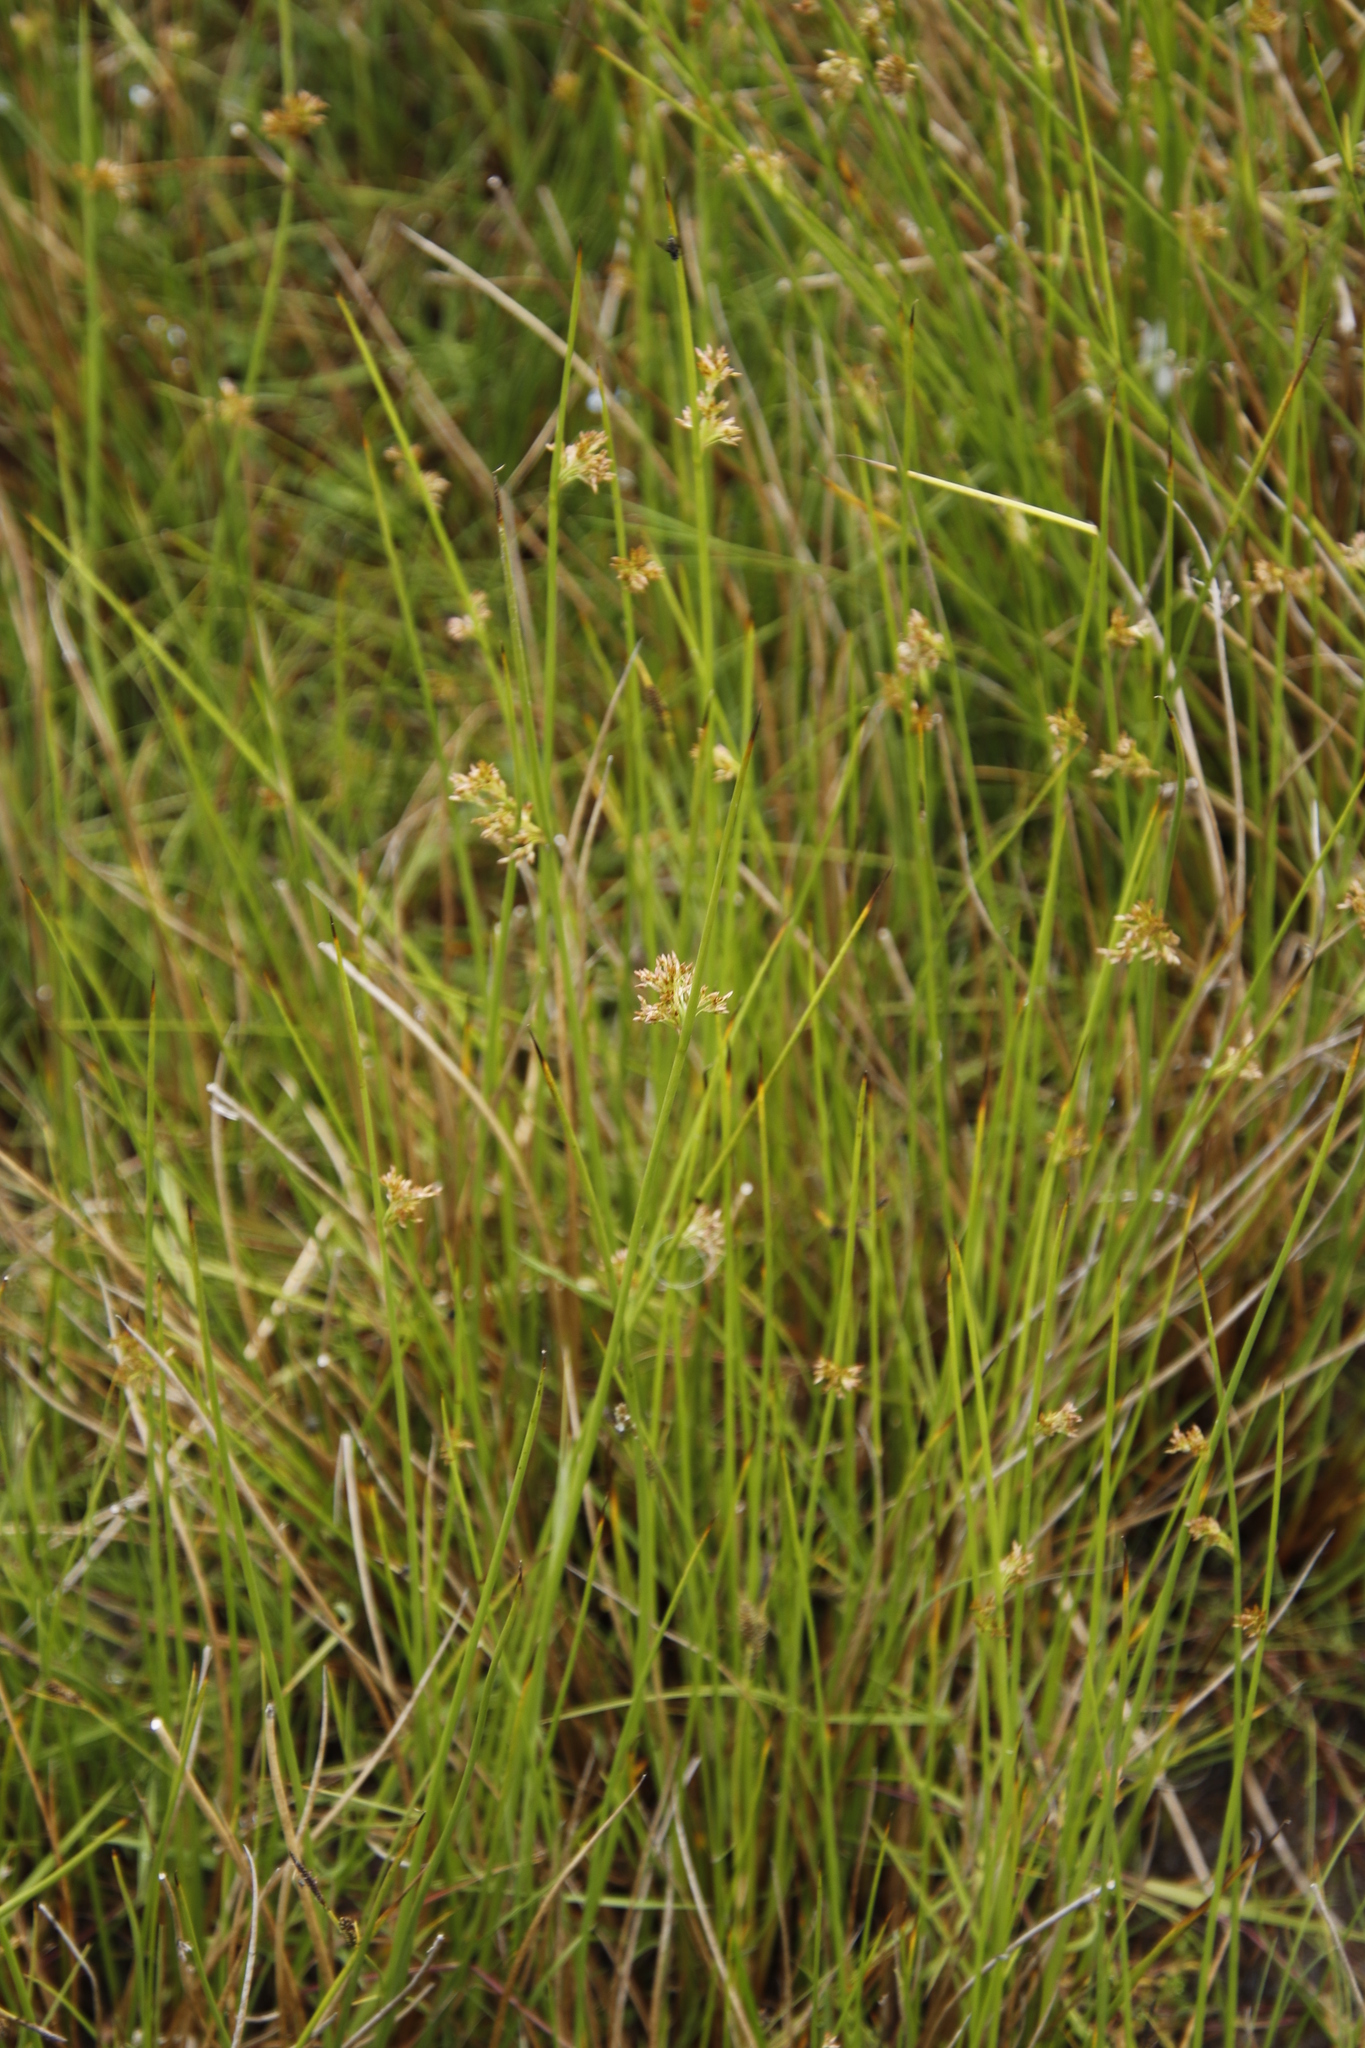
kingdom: Plantae
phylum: Tracheophyta
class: Liliopsida
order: Poales
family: Juncaceae
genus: Juncus
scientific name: Juncus effusus
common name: Soft rush
